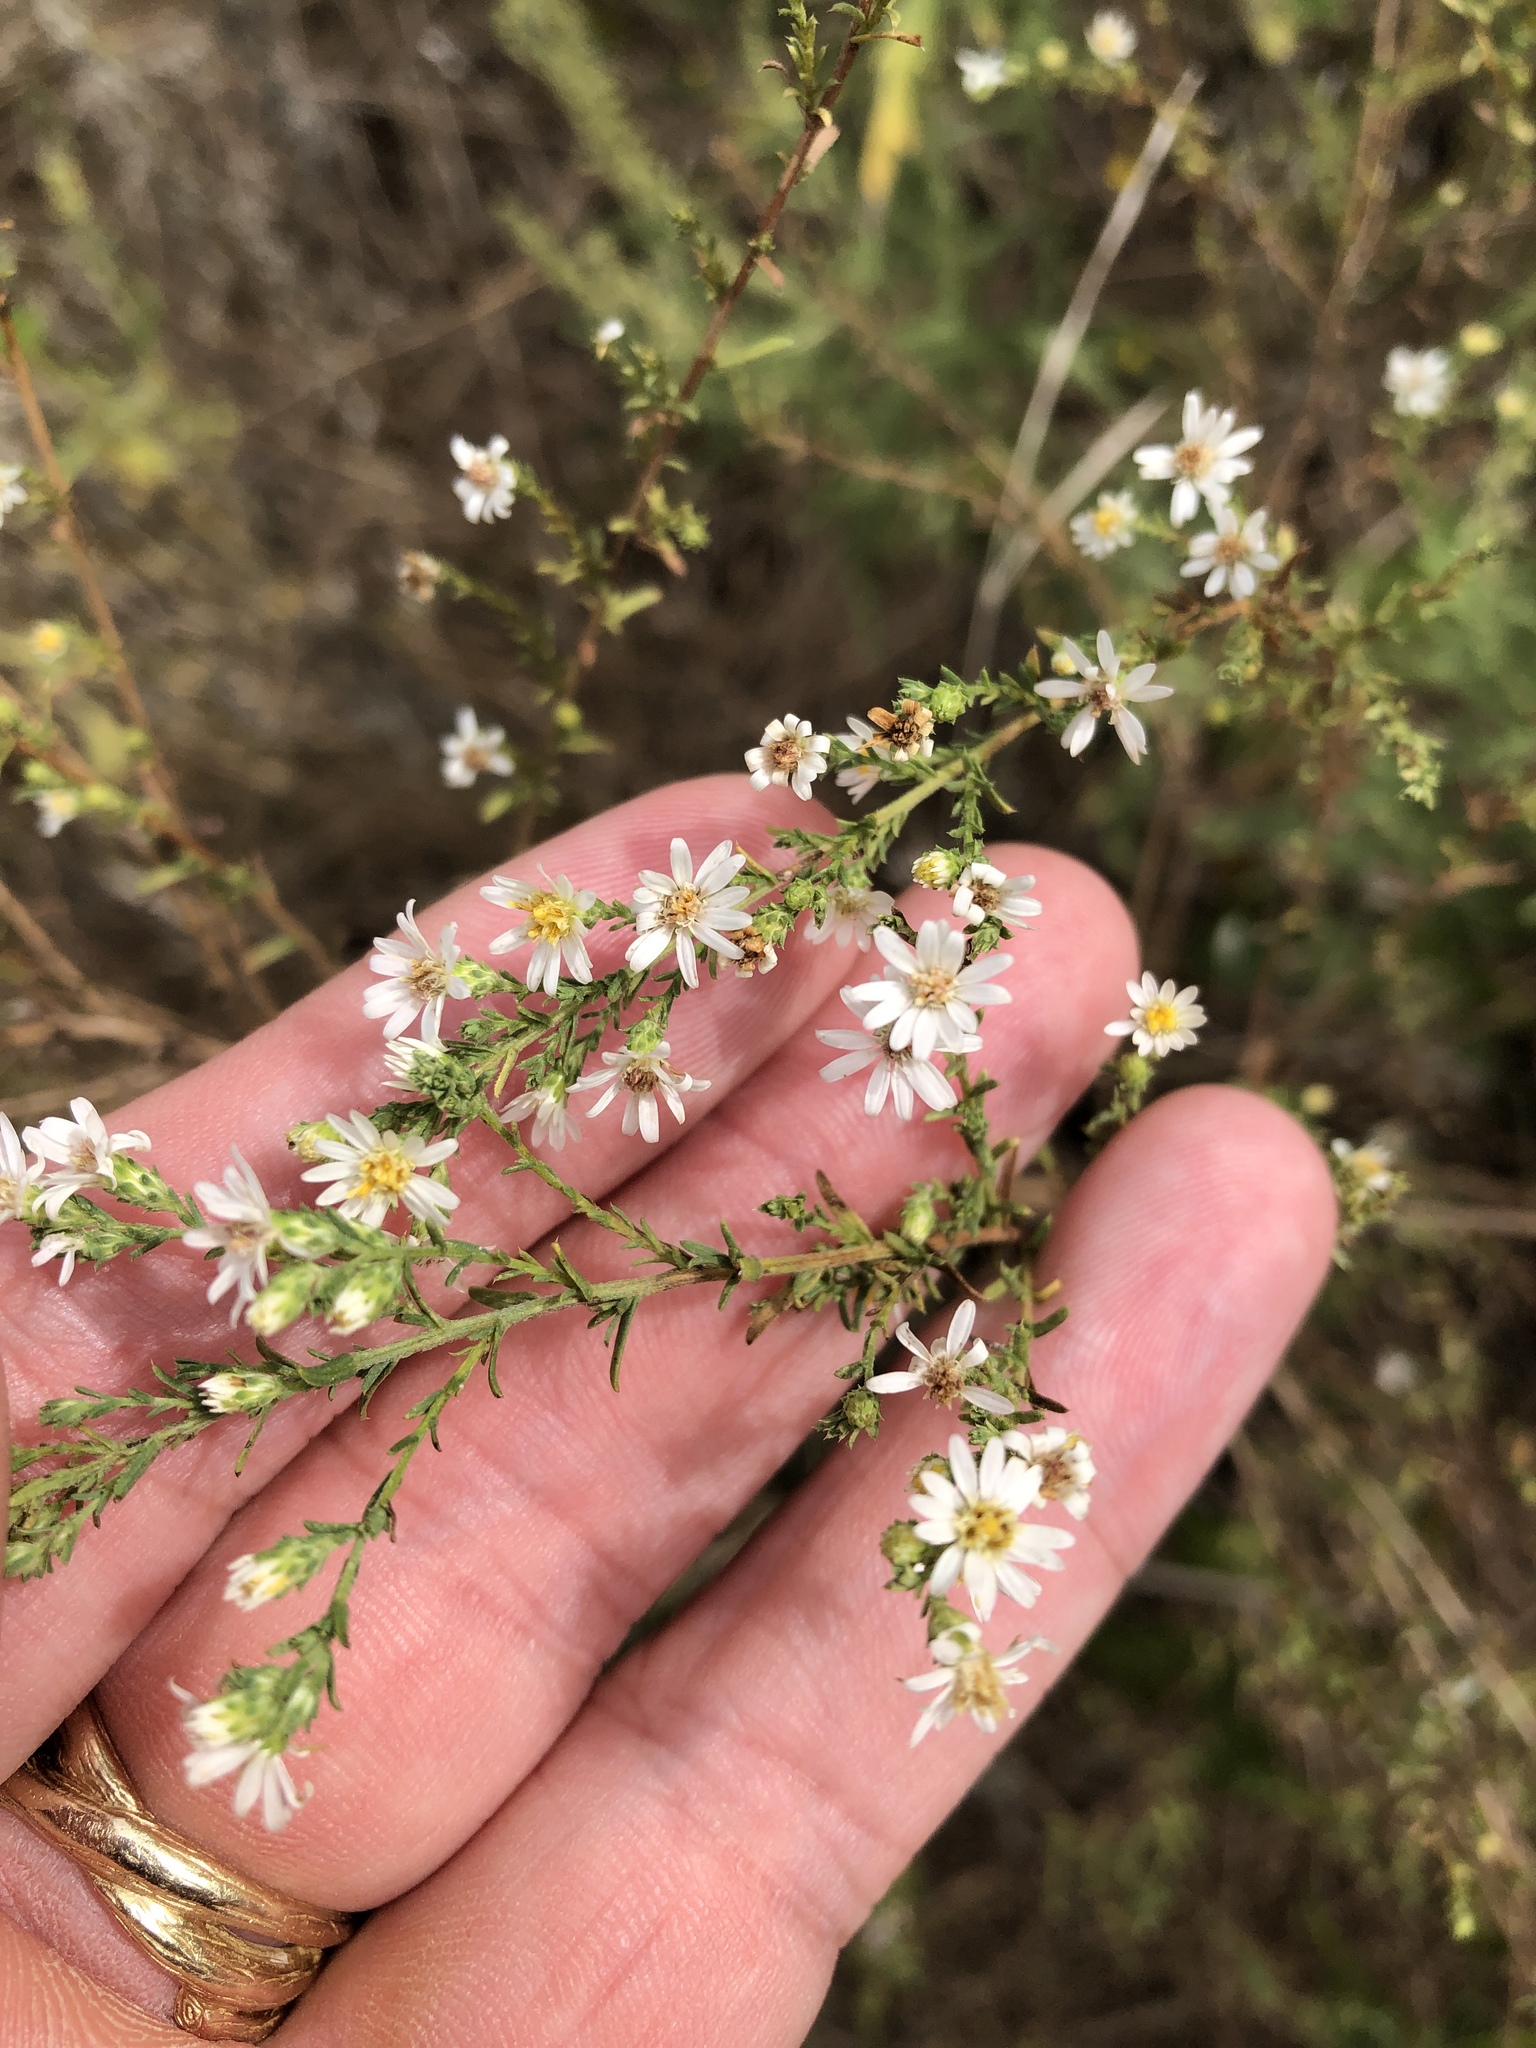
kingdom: Plantae
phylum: Tracheophyta
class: Magnoliopsida
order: Asterales
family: Asteraceae
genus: Symphyotrichum
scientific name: Symphyotrichum ericoides
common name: Heath aster
